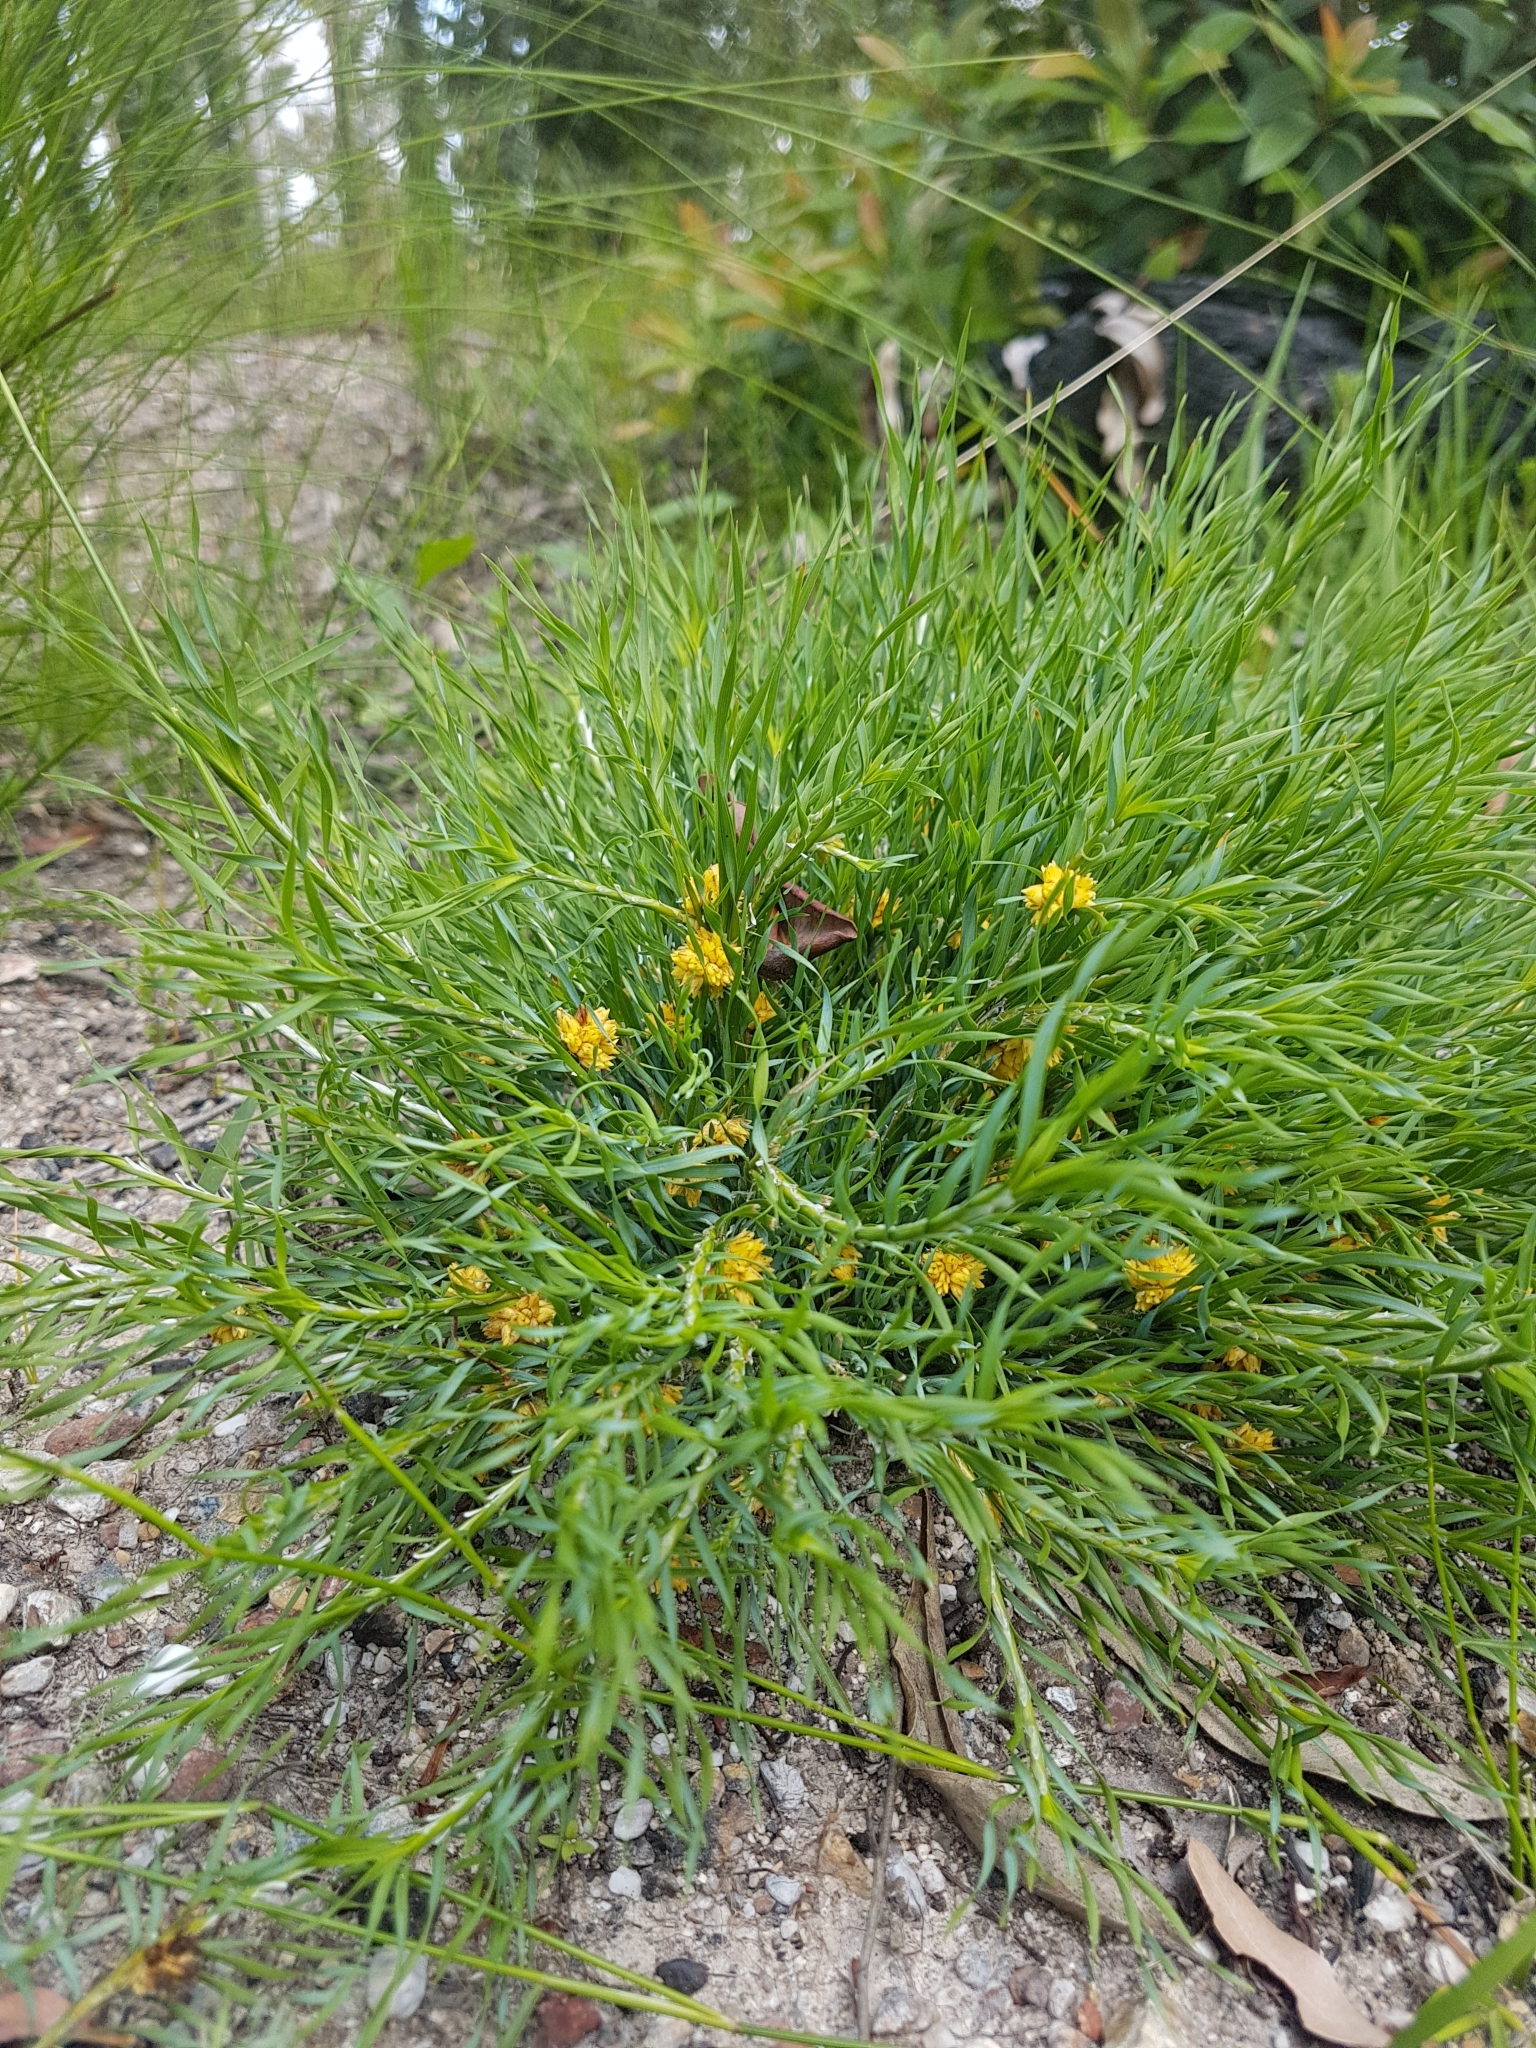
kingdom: Plantae
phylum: Tracheophyta
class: Liliopsida
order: Asparagales
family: Asparagaceae
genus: Lomandra
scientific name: Lomandra obliqua
